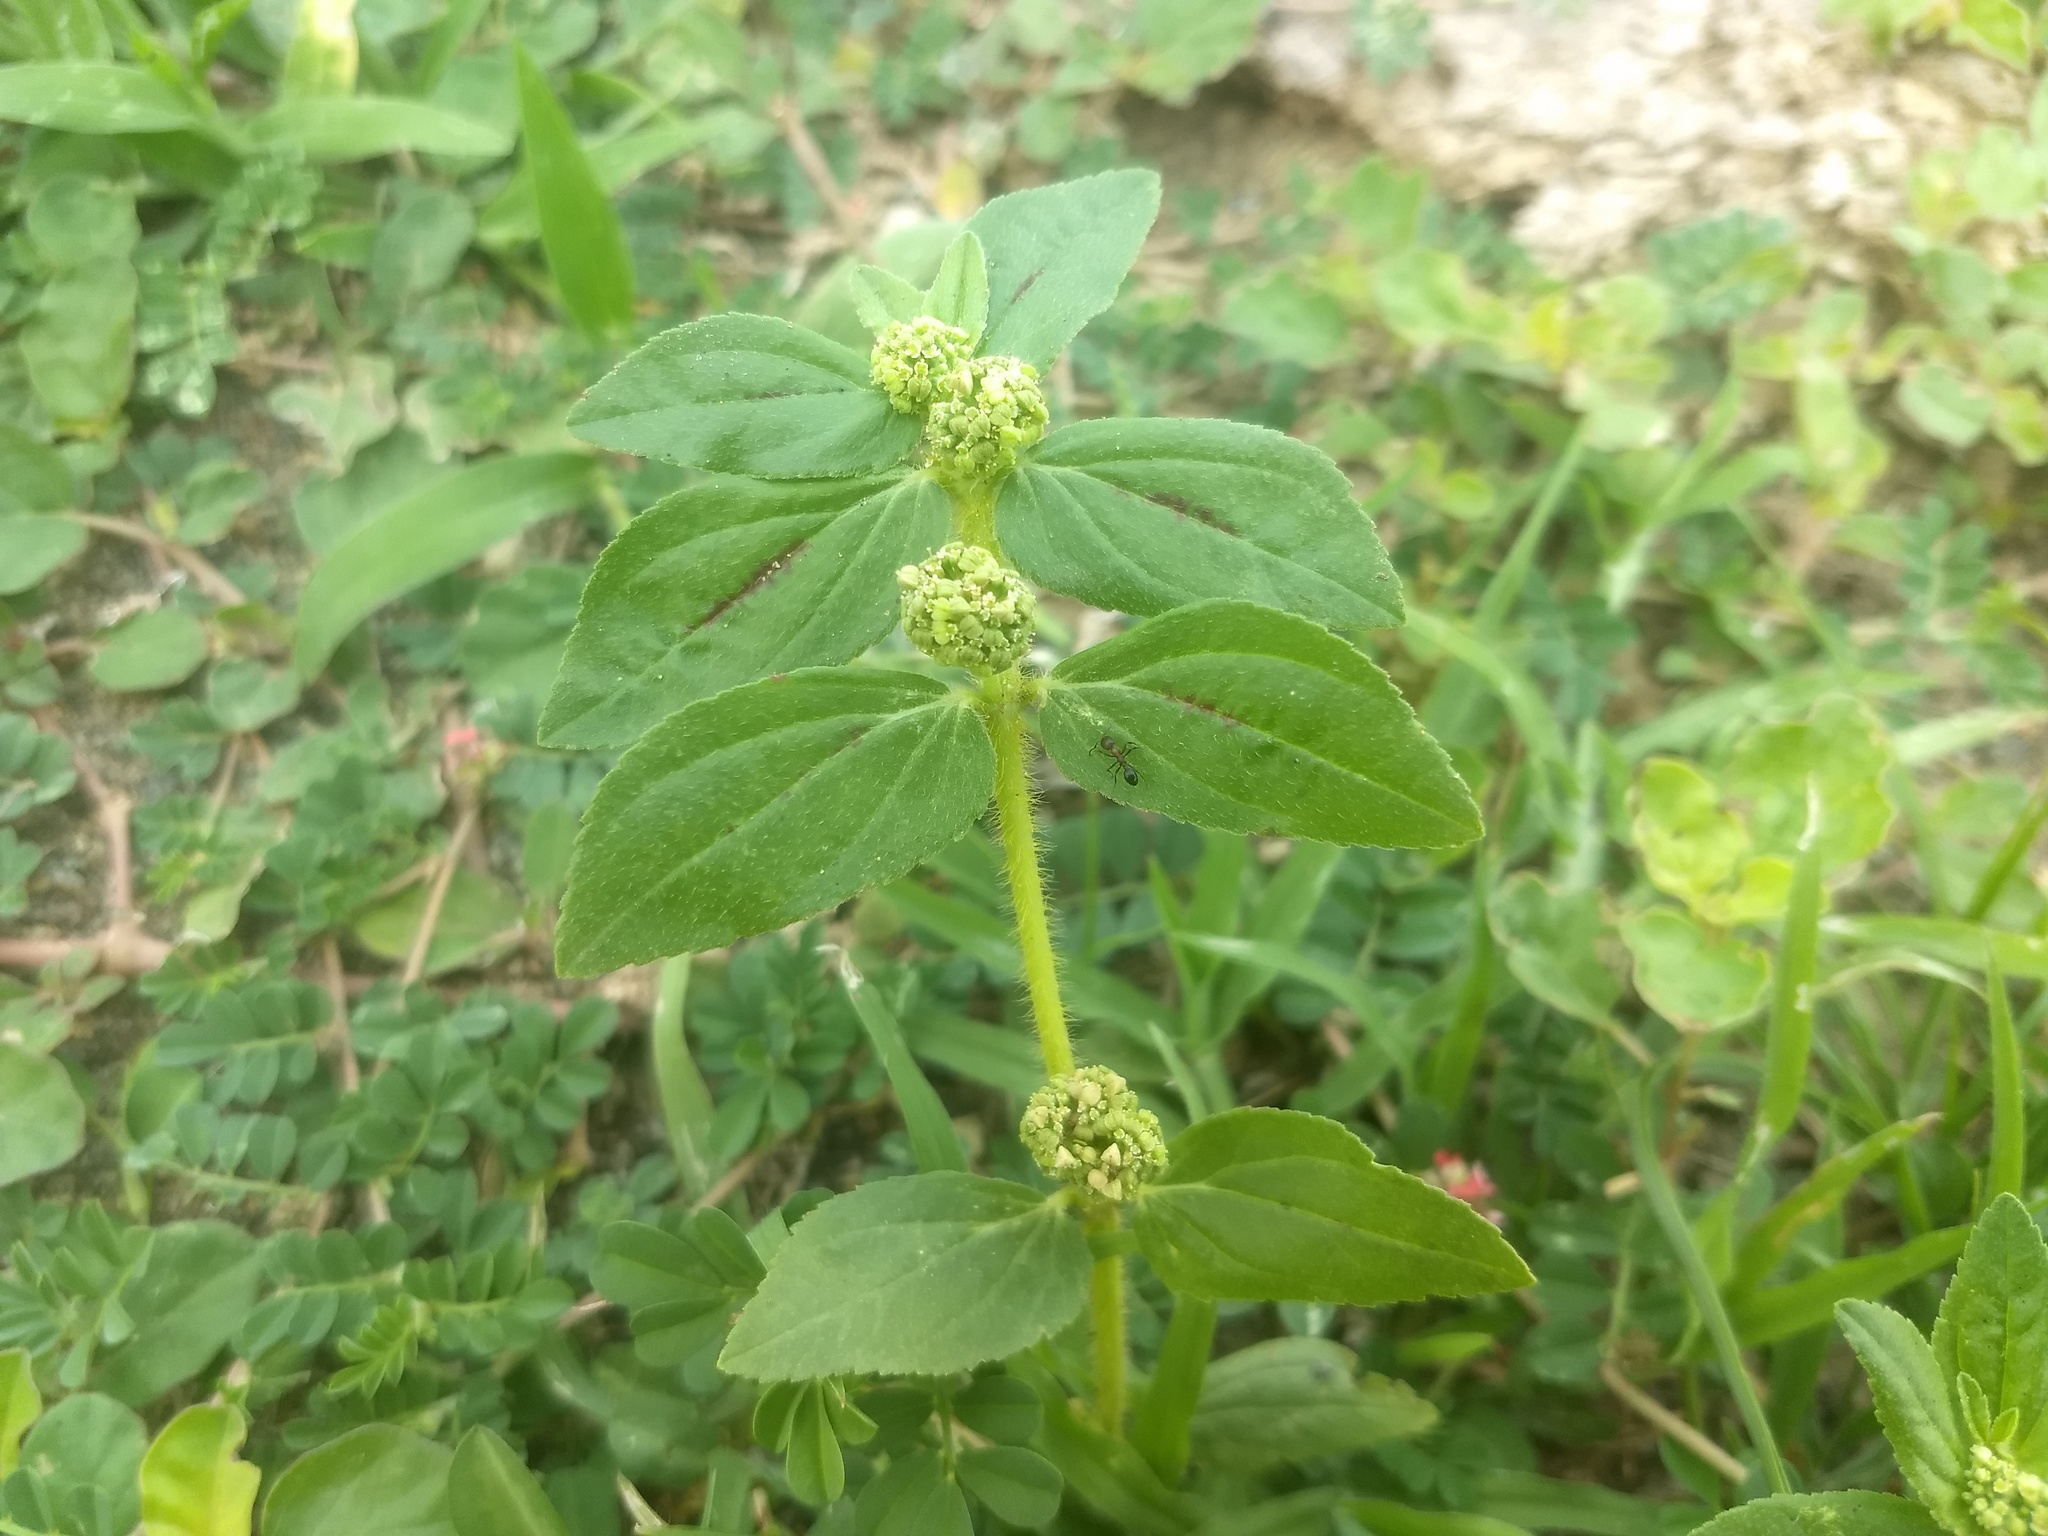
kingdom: Plantae
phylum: Tracheophyta
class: Magnoliopsida
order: Malpighiales
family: Euphorbiaceae
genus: Euphorbia
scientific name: Euphorbia hirta
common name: Pillpod sandmat
